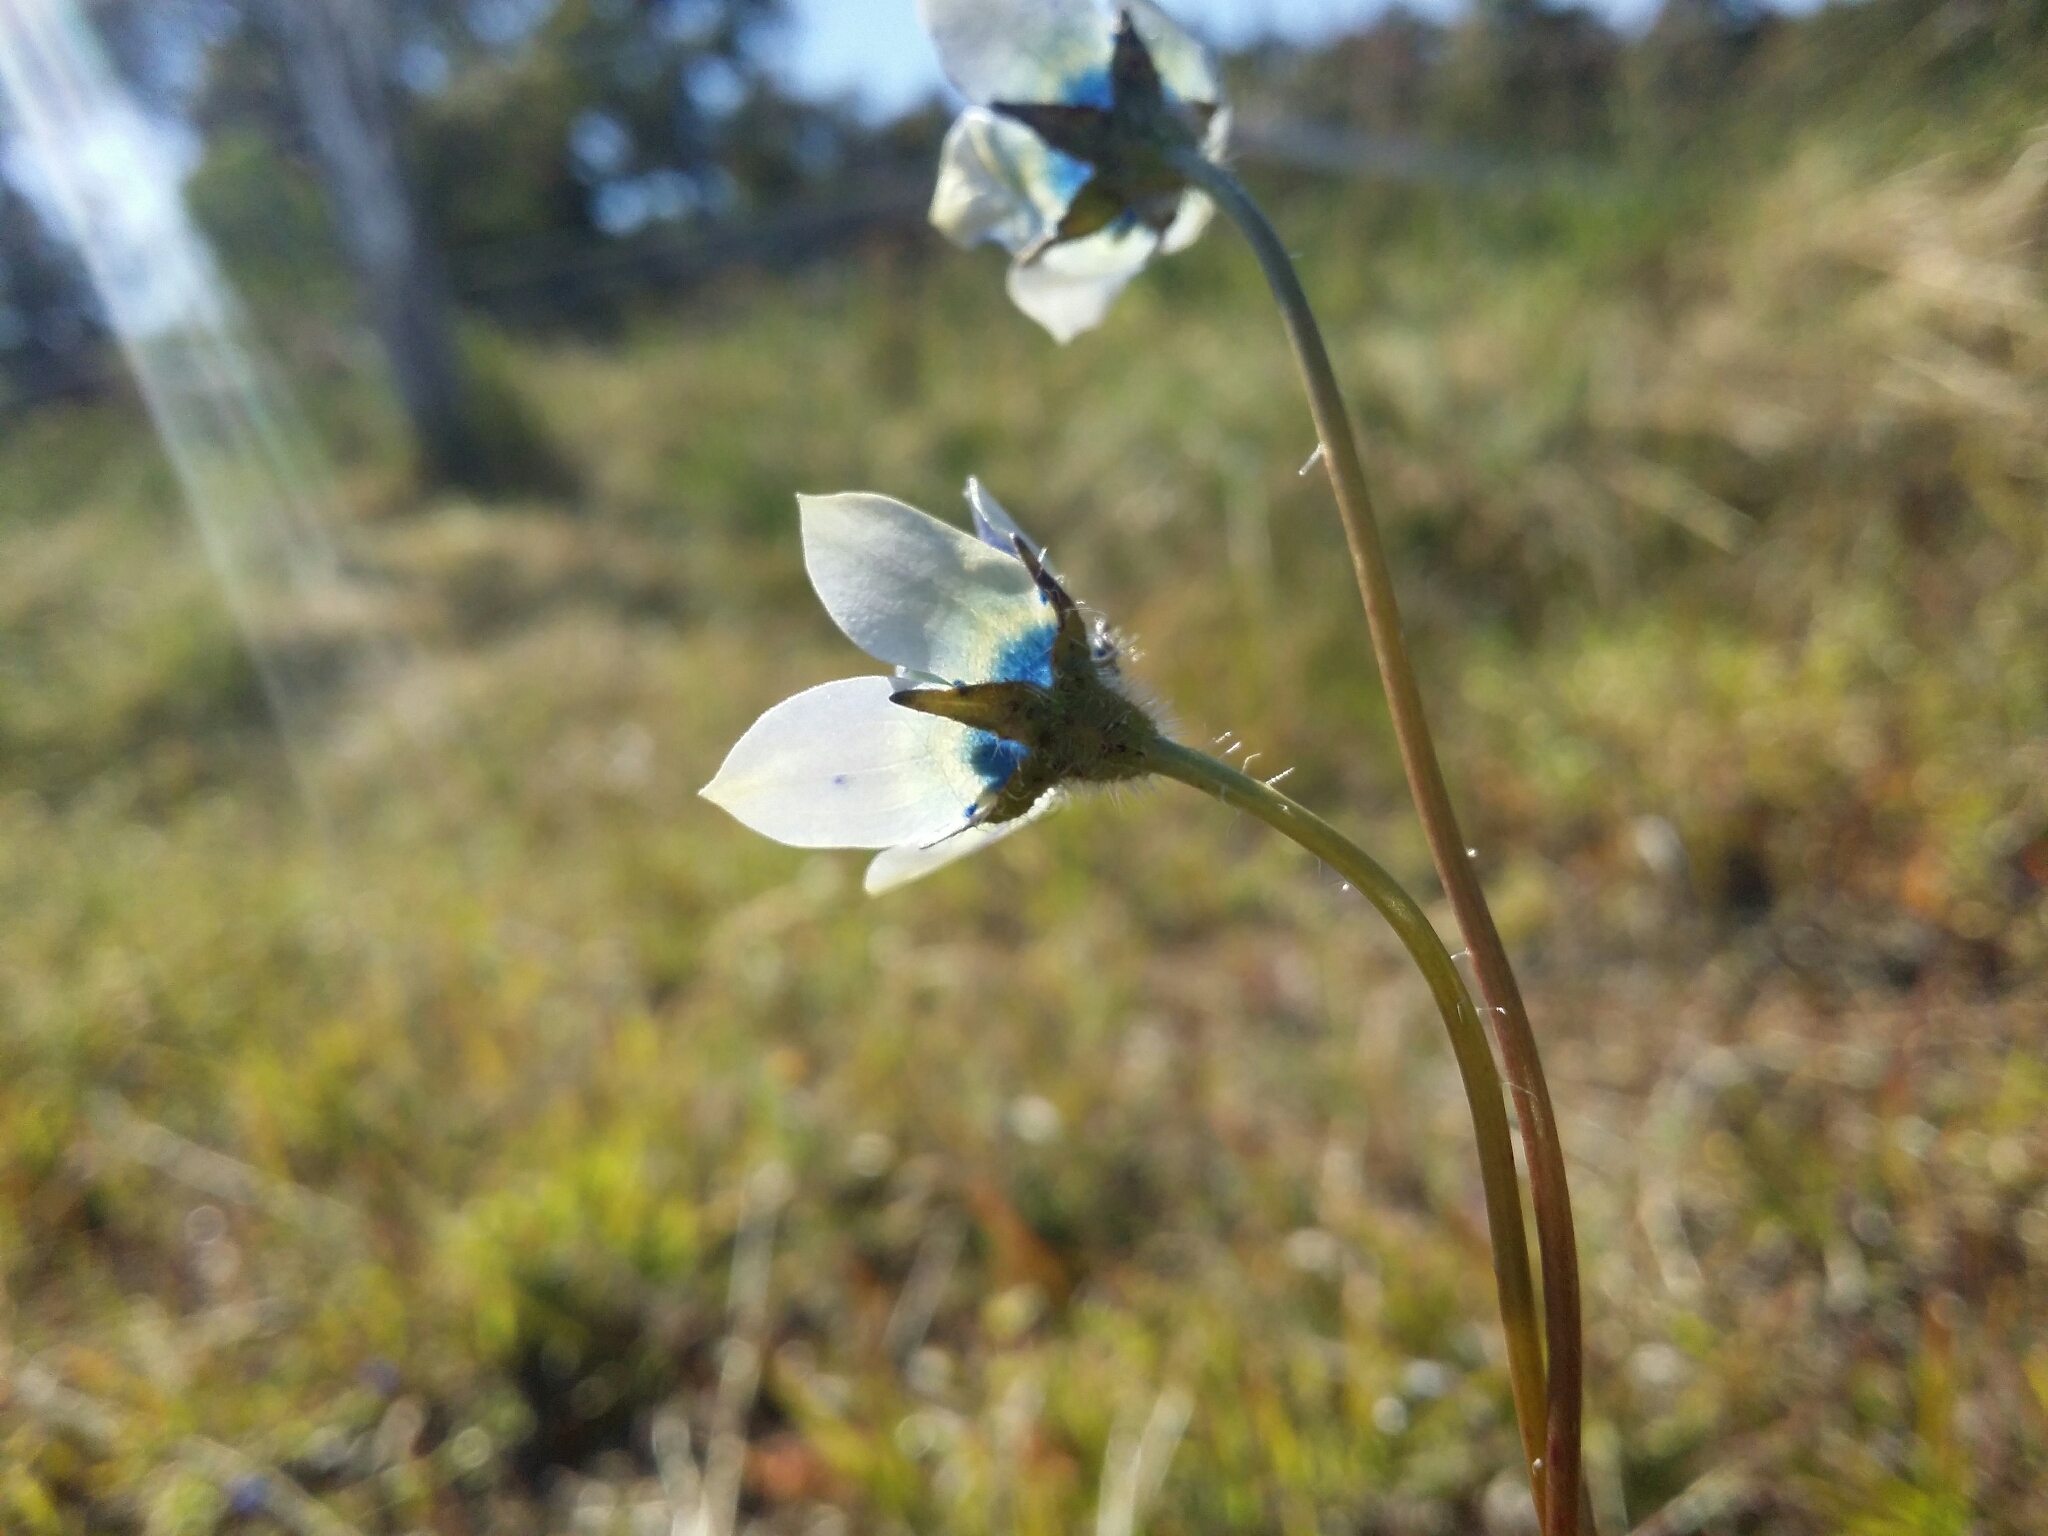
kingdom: Plantae
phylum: Tracheophyta
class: Magnoliopsida
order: Asterales
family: Campanulaceae
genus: Wahlenbergia
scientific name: Wahlenbergia capensis
